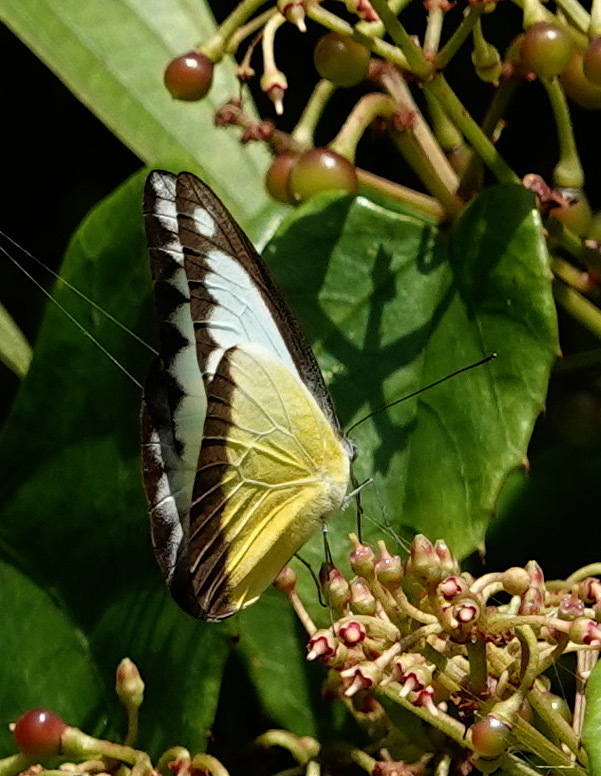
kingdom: Animalia
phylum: Arthropoda
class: Insecta
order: Lepidoptera
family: Pieridae
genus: Appias
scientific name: Appias lyncida
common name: Chocolate albatross
